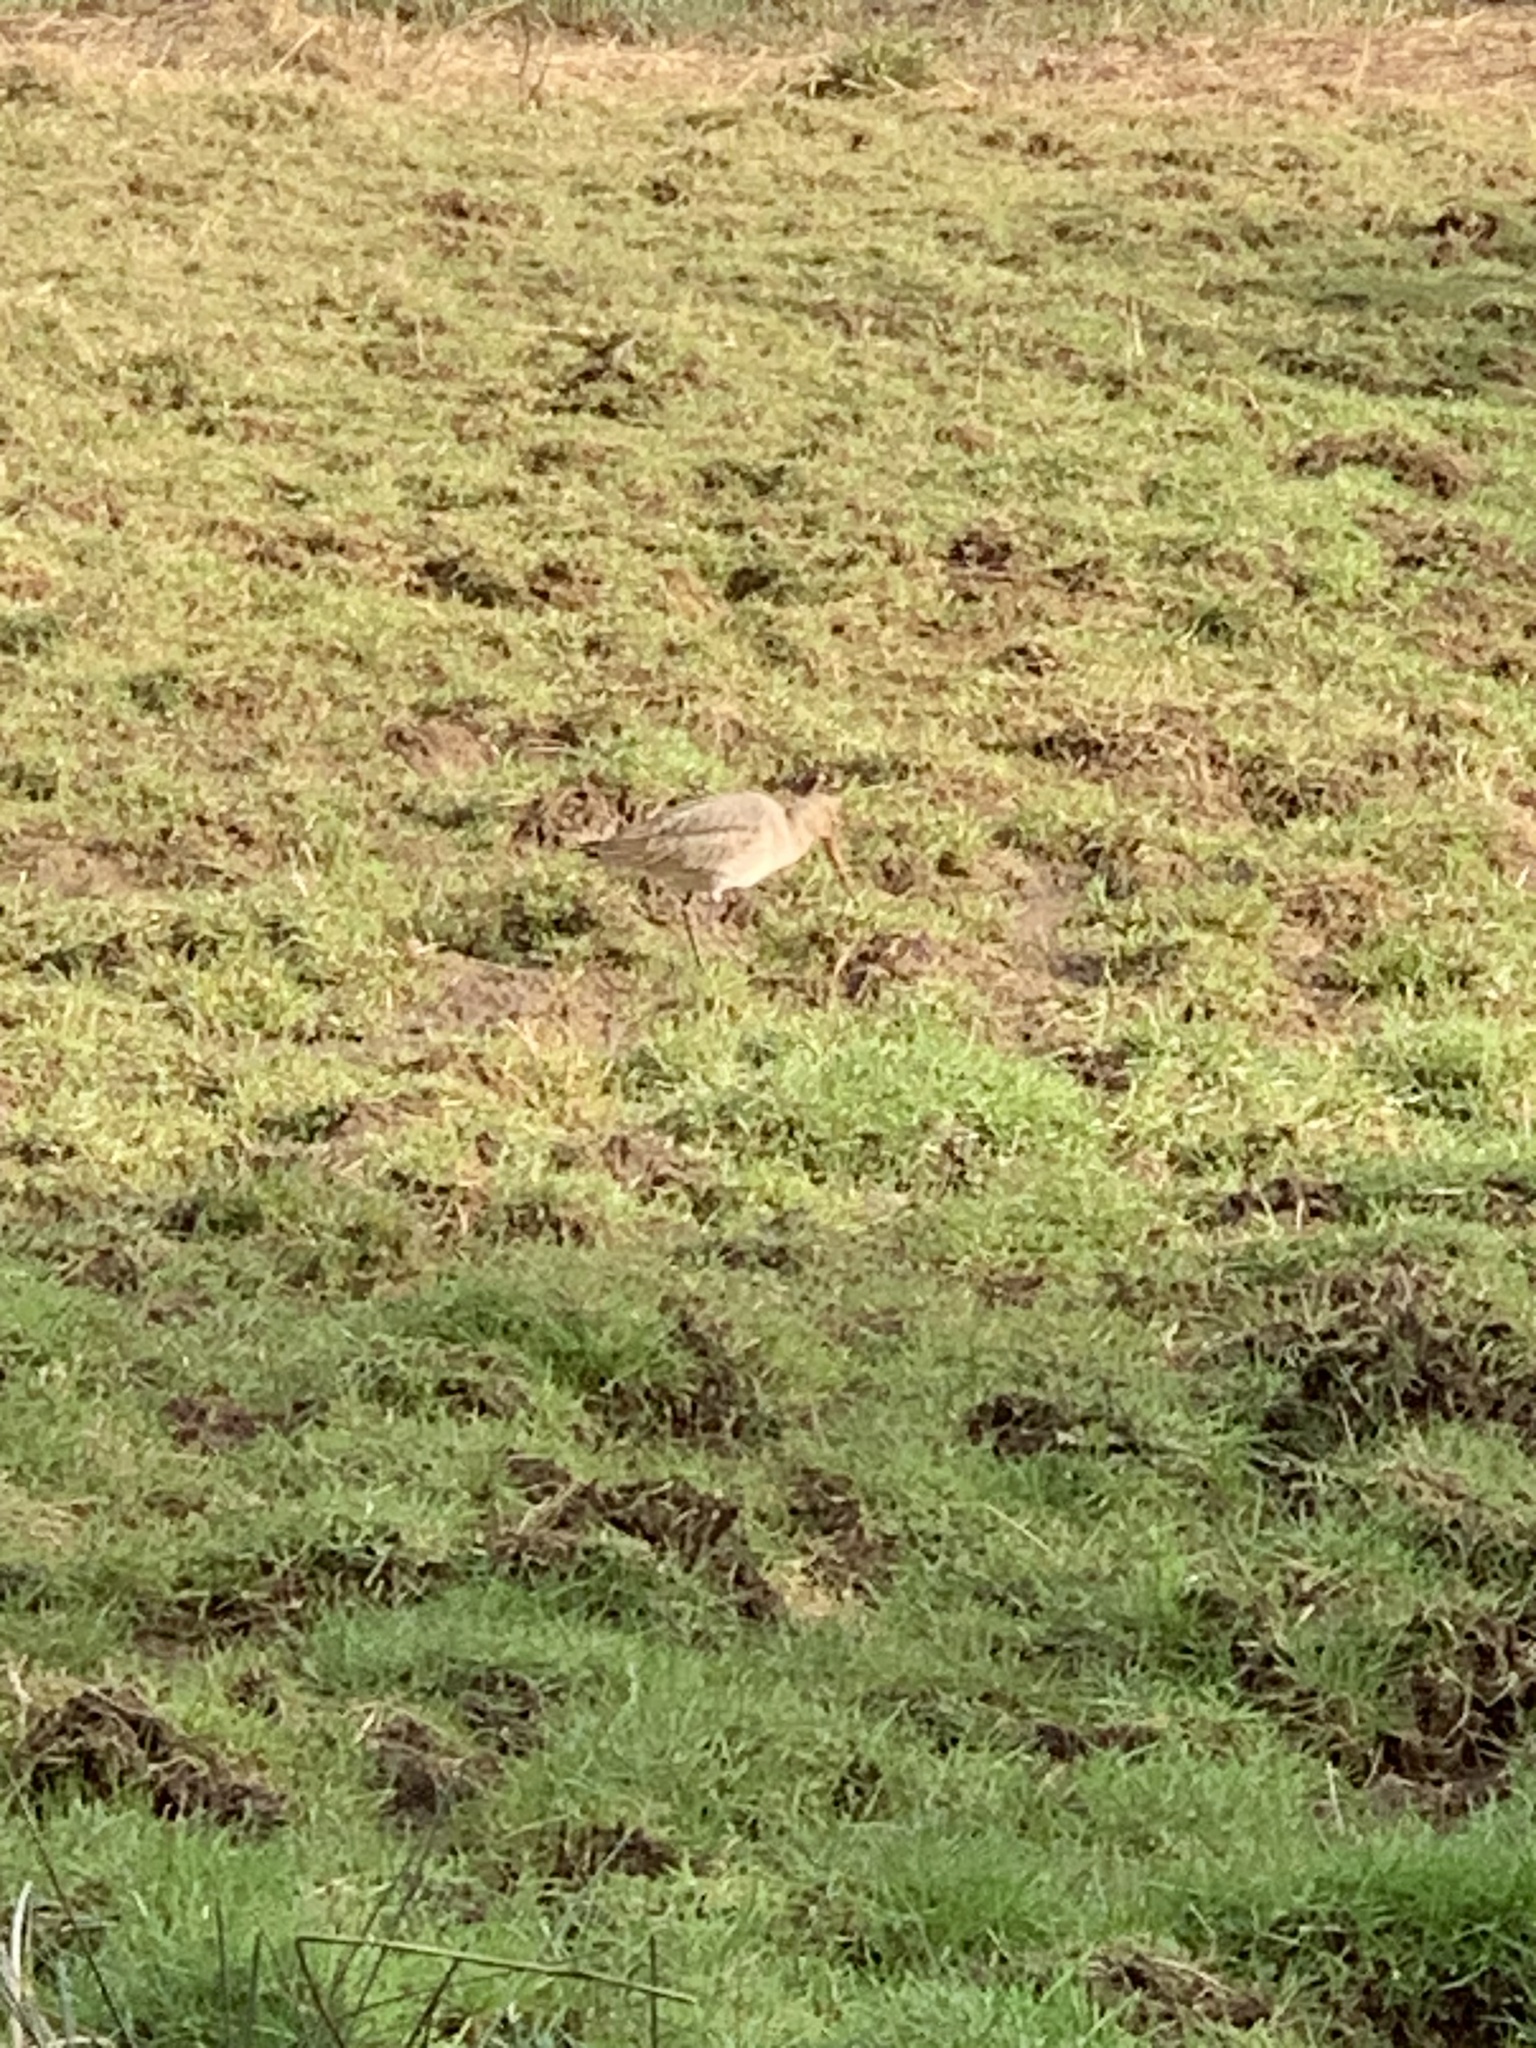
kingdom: Animalia
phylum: Chordata
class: Aves
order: Charadriiformes
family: Scolopacidae
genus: Limosa
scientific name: Limosa limosa
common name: Black-tailed godwit
